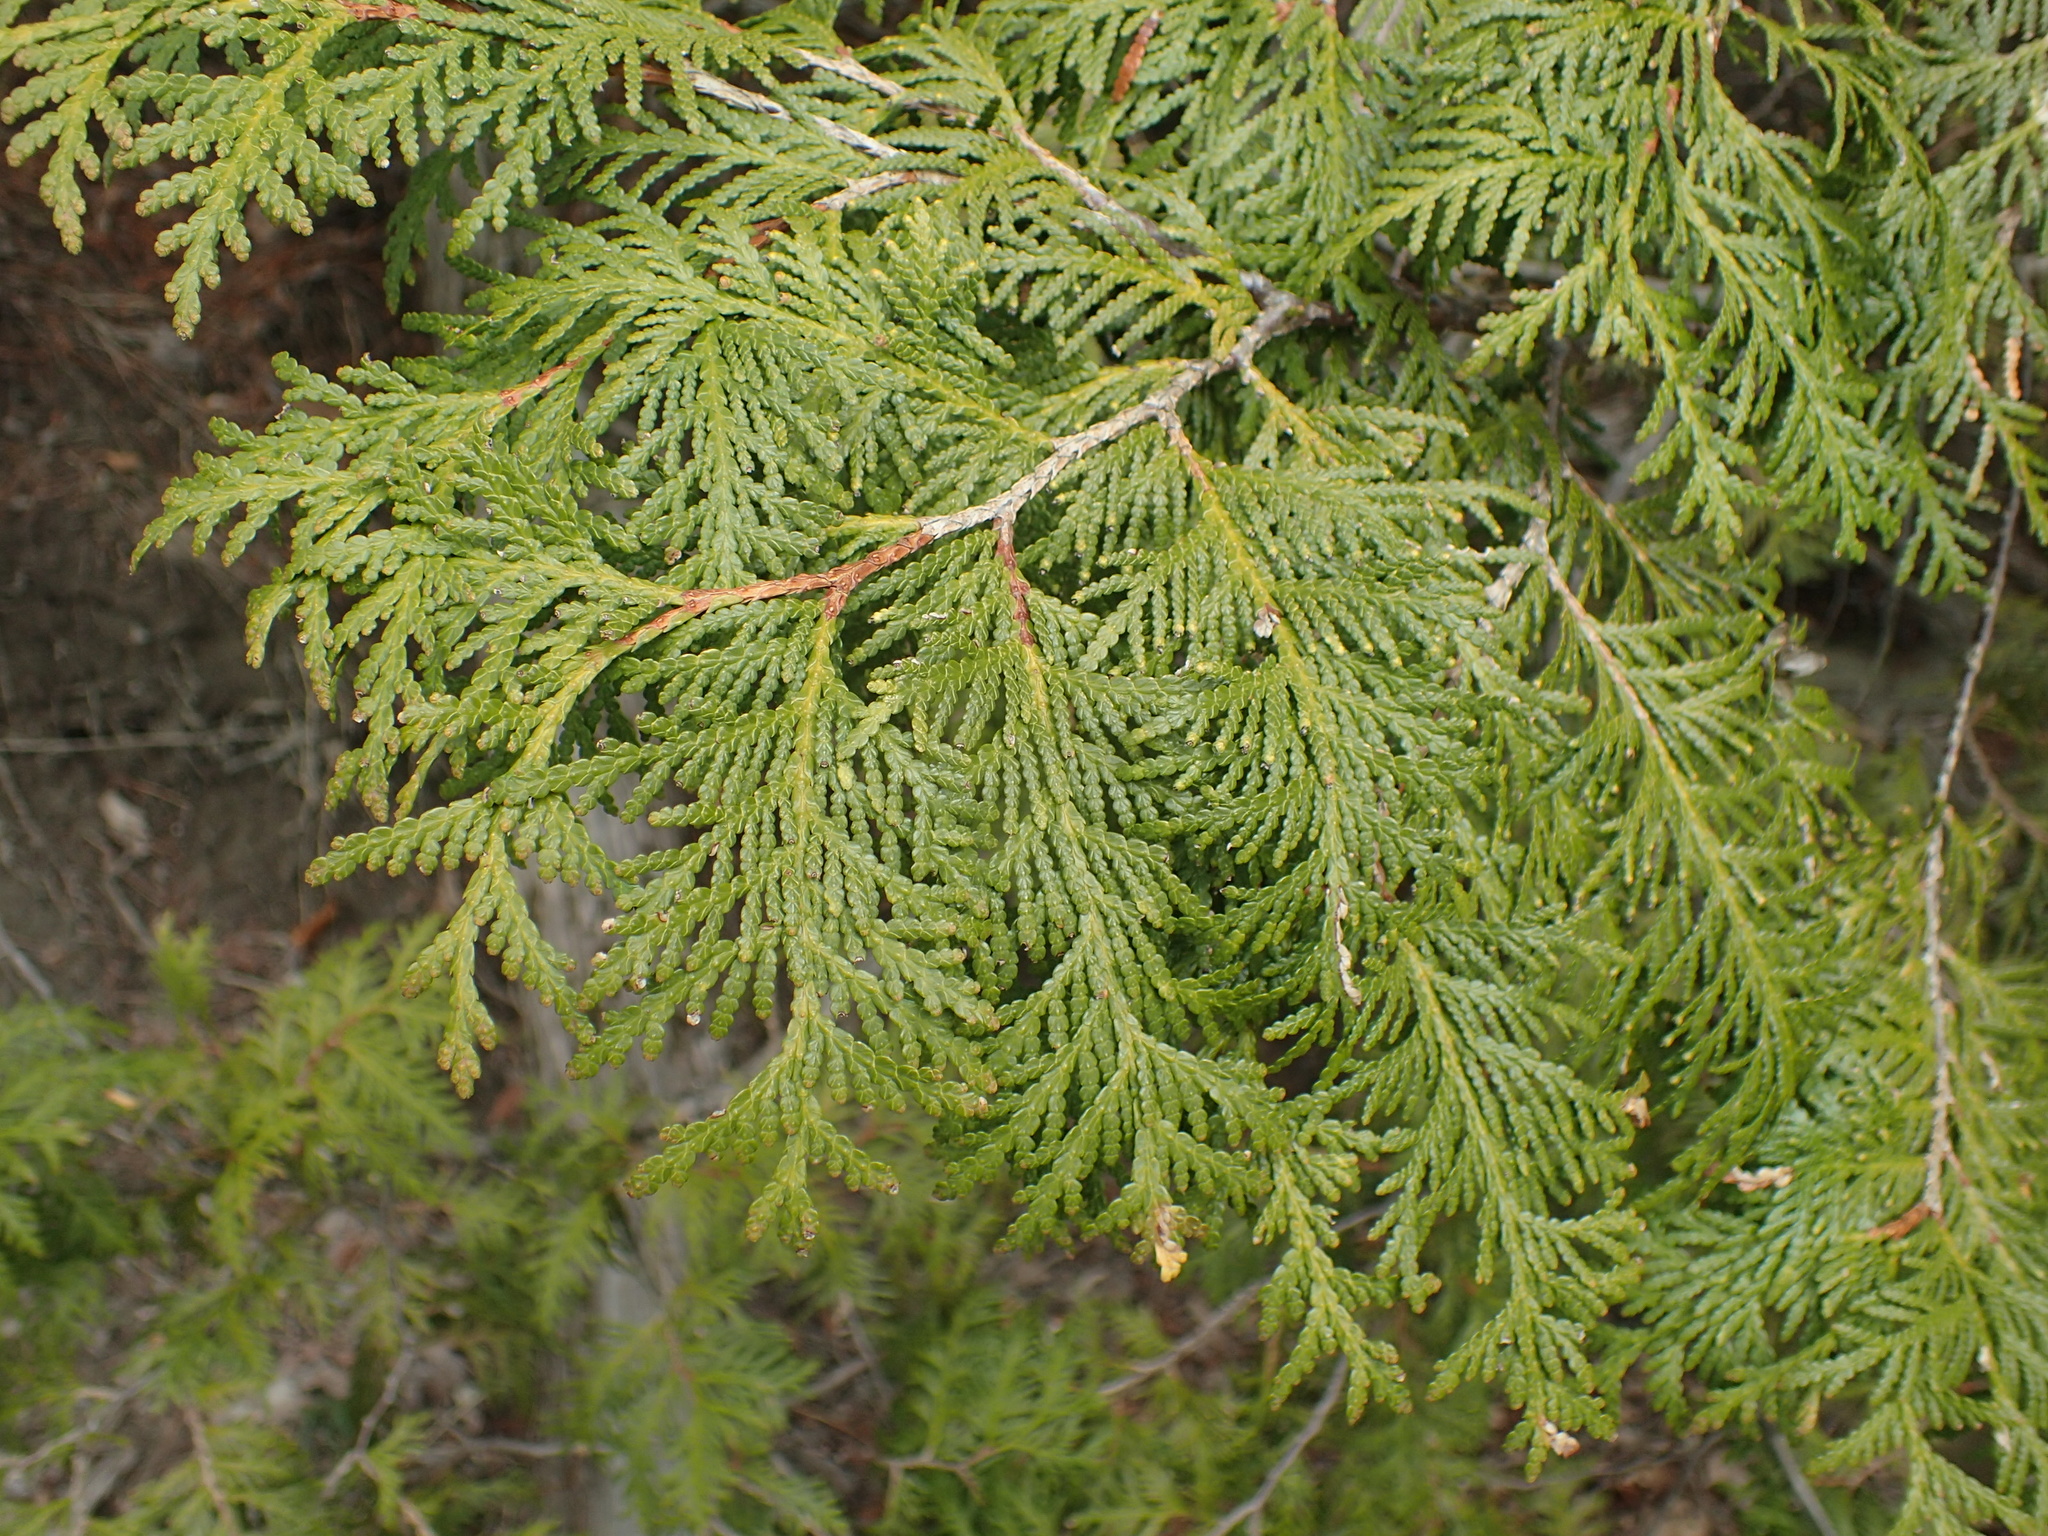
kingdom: Plantae
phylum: Tracheophyta
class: Pinopsida
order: Pinales
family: Cupressaceae
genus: Thuja
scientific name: Thuja occidentalis
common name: Northern white-cedar
